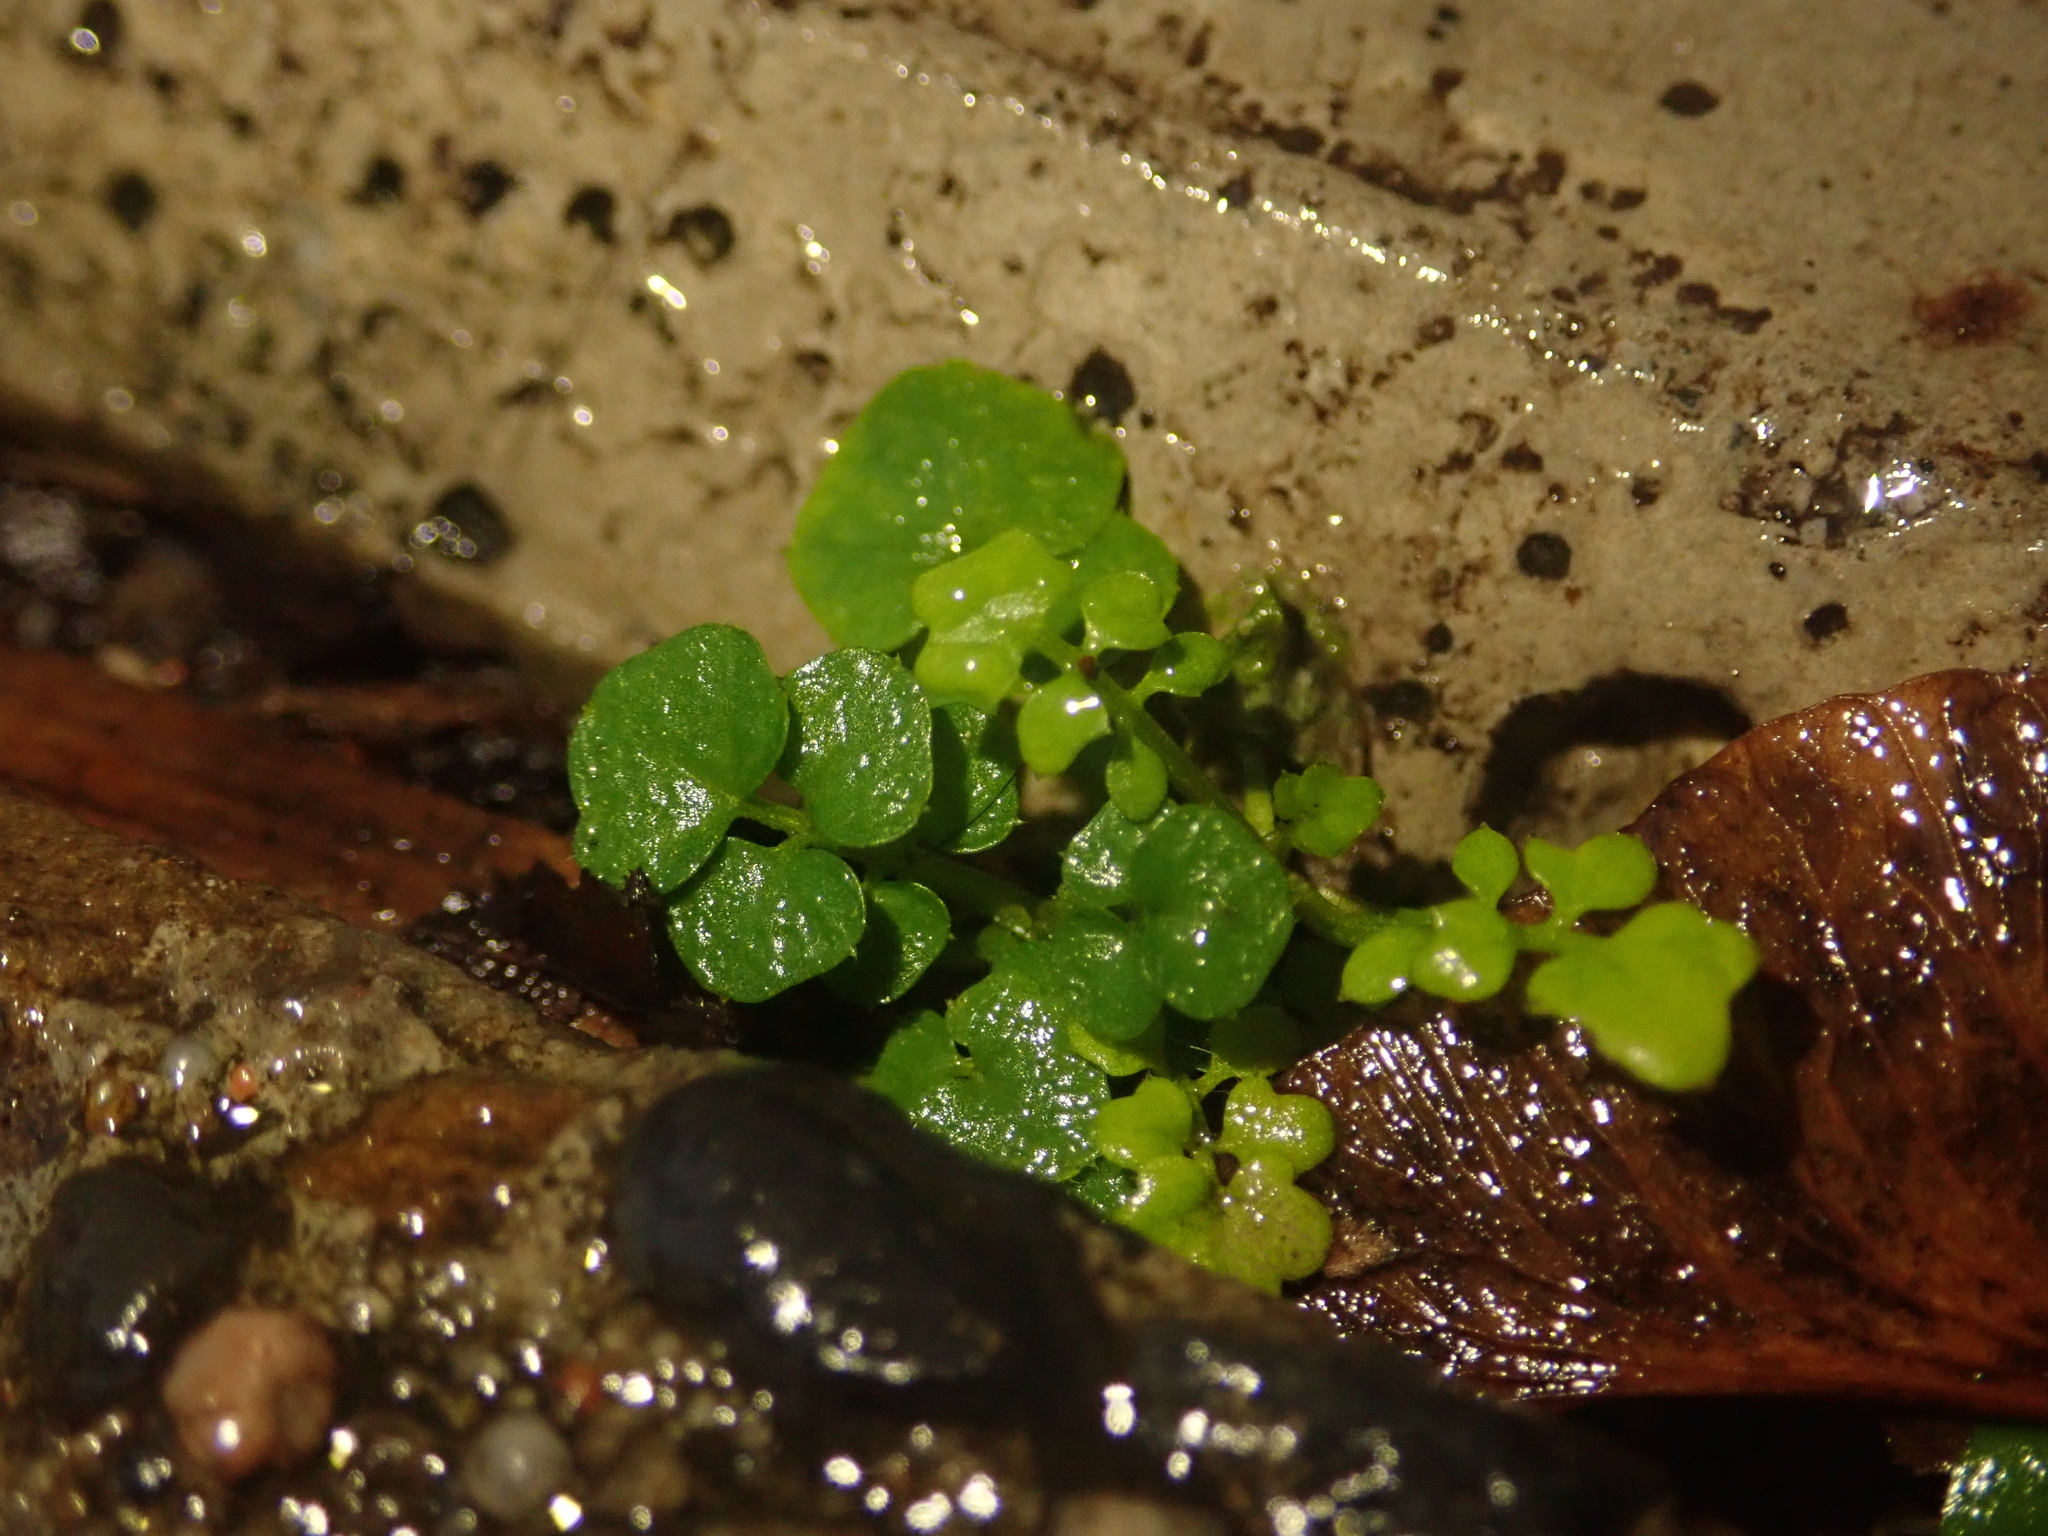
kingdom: Plantae
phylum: Tracheophyta
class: Magnoliopsida
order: Brassicales
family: Brassicaceae
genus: Cardamine
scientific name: Cardamine hirsuta
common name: Hairy bittercress
